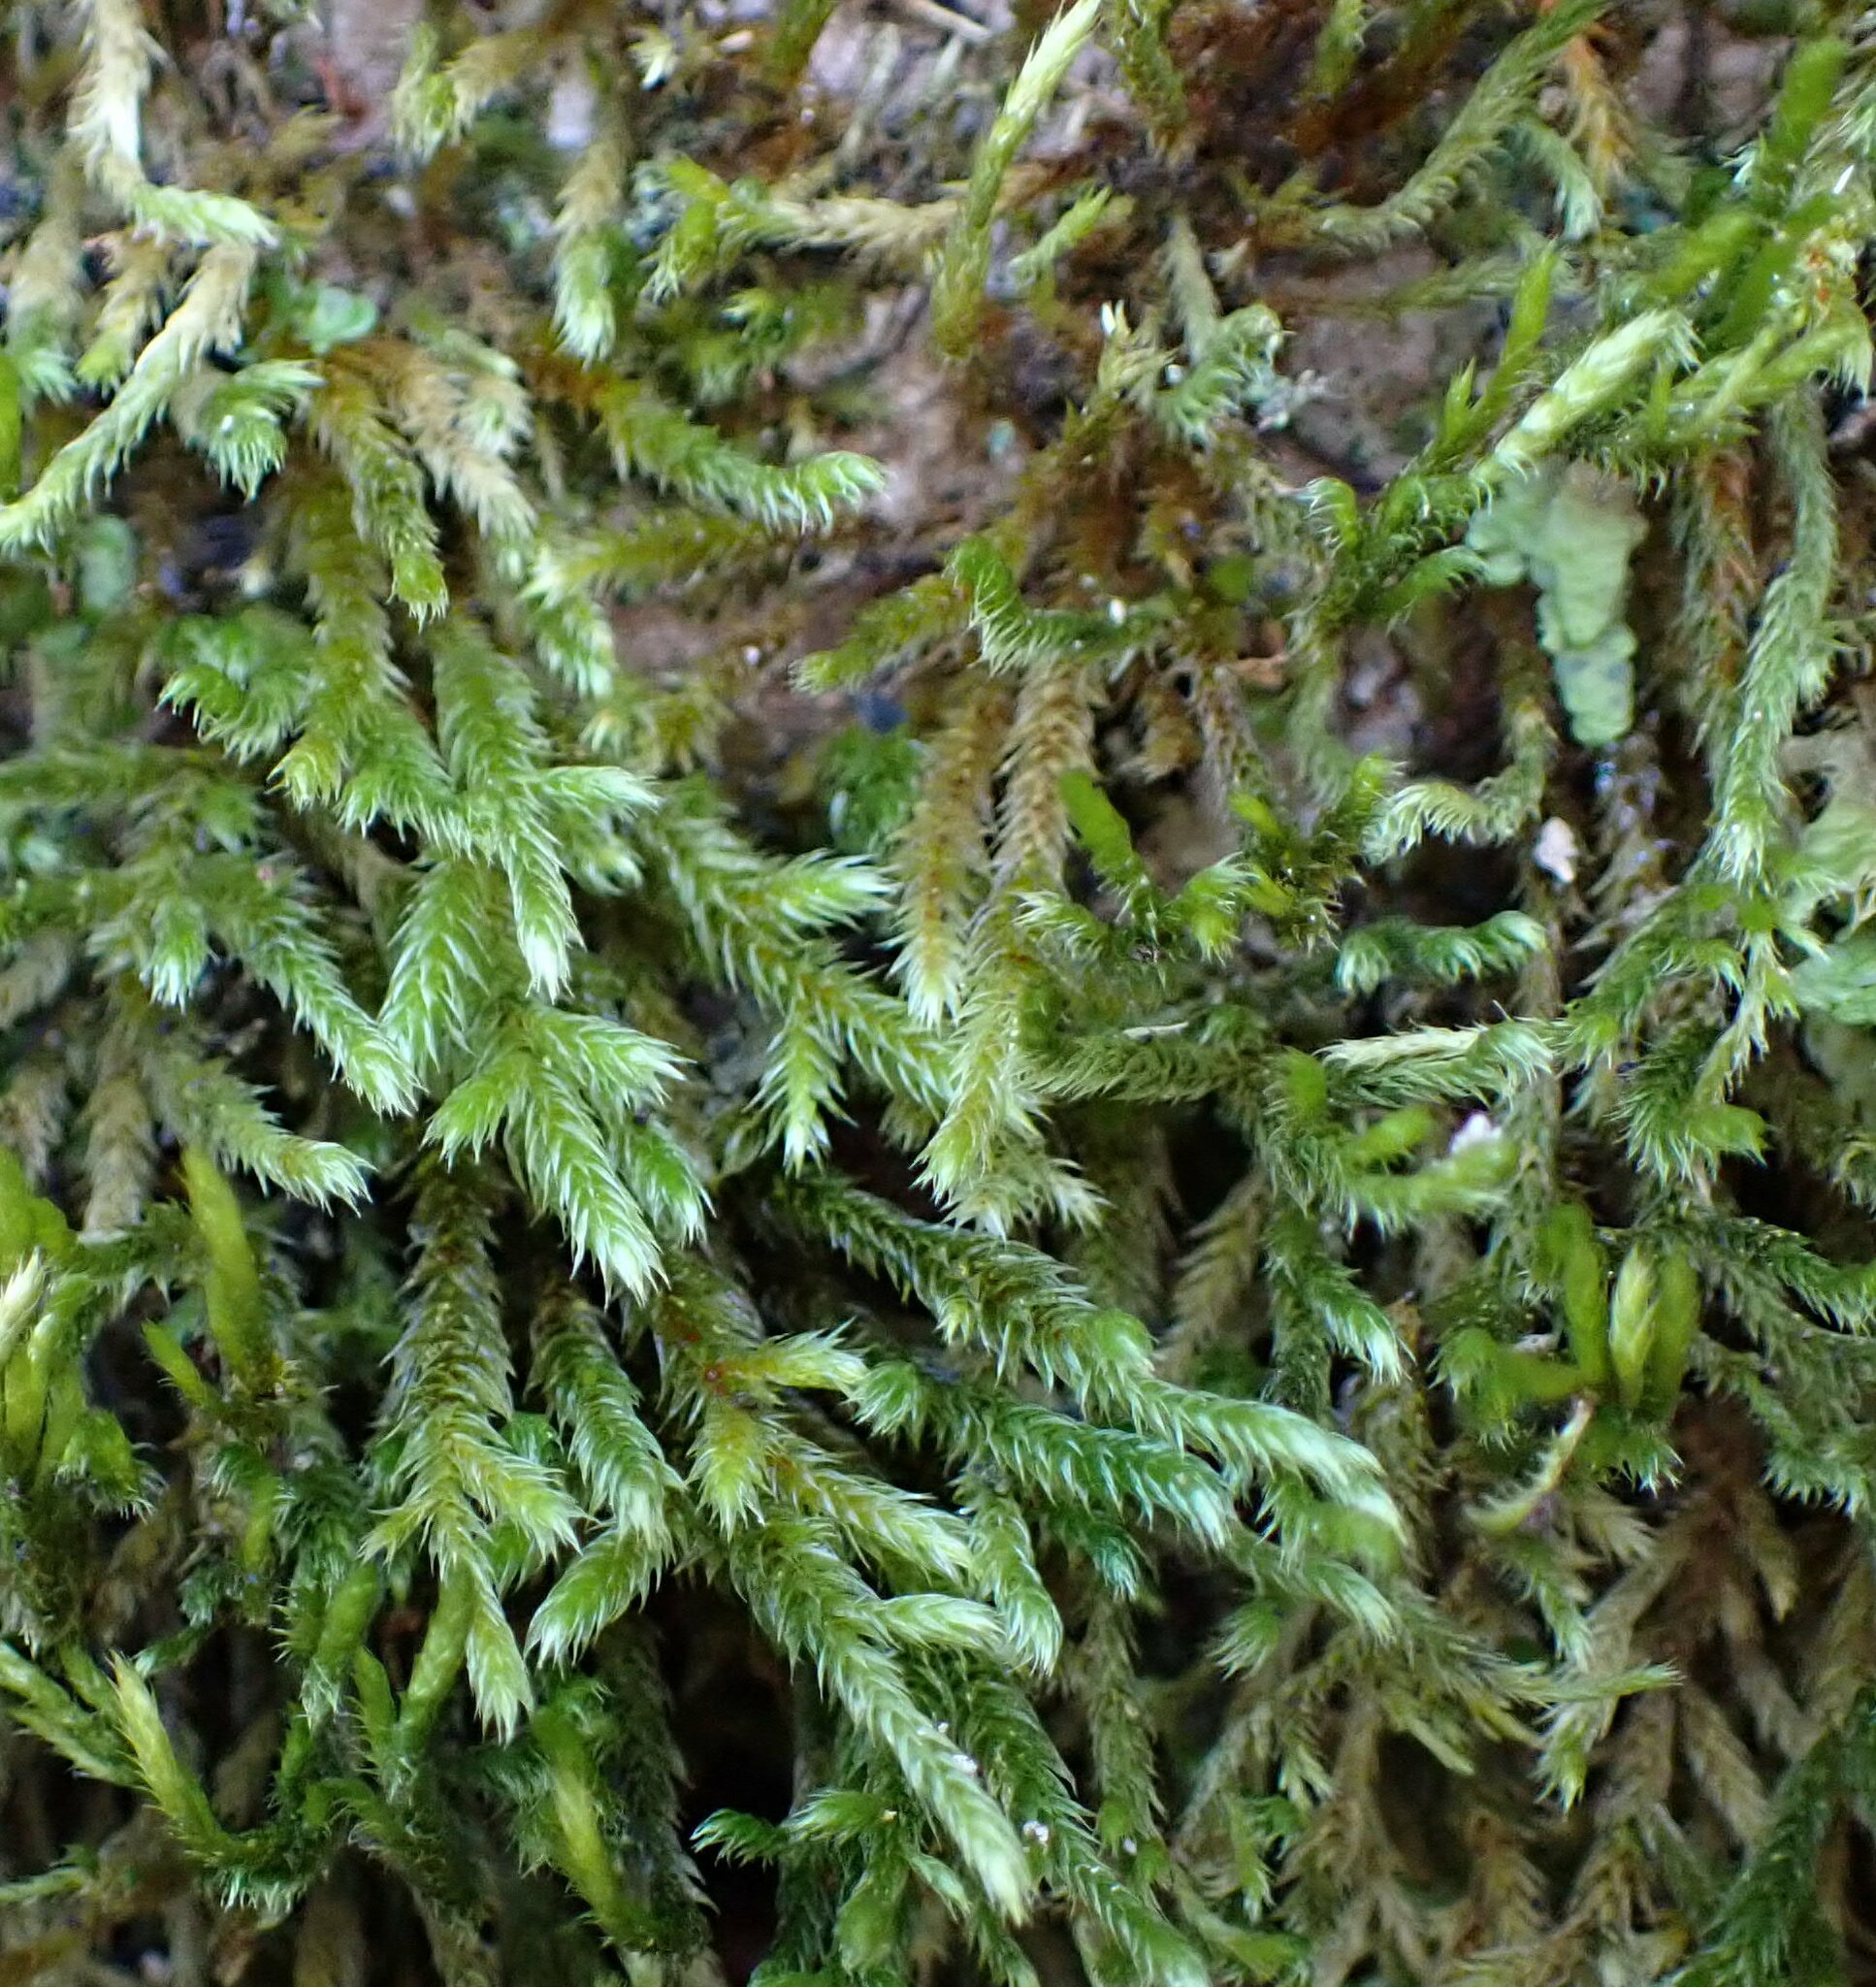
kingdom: Plantae
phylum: Bryophyta
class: Bryopsida
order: Hypnales
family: Leucodontaceae
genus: Leucodon
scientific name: Leucodon sciuroides
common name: Squirrel-tail moss
